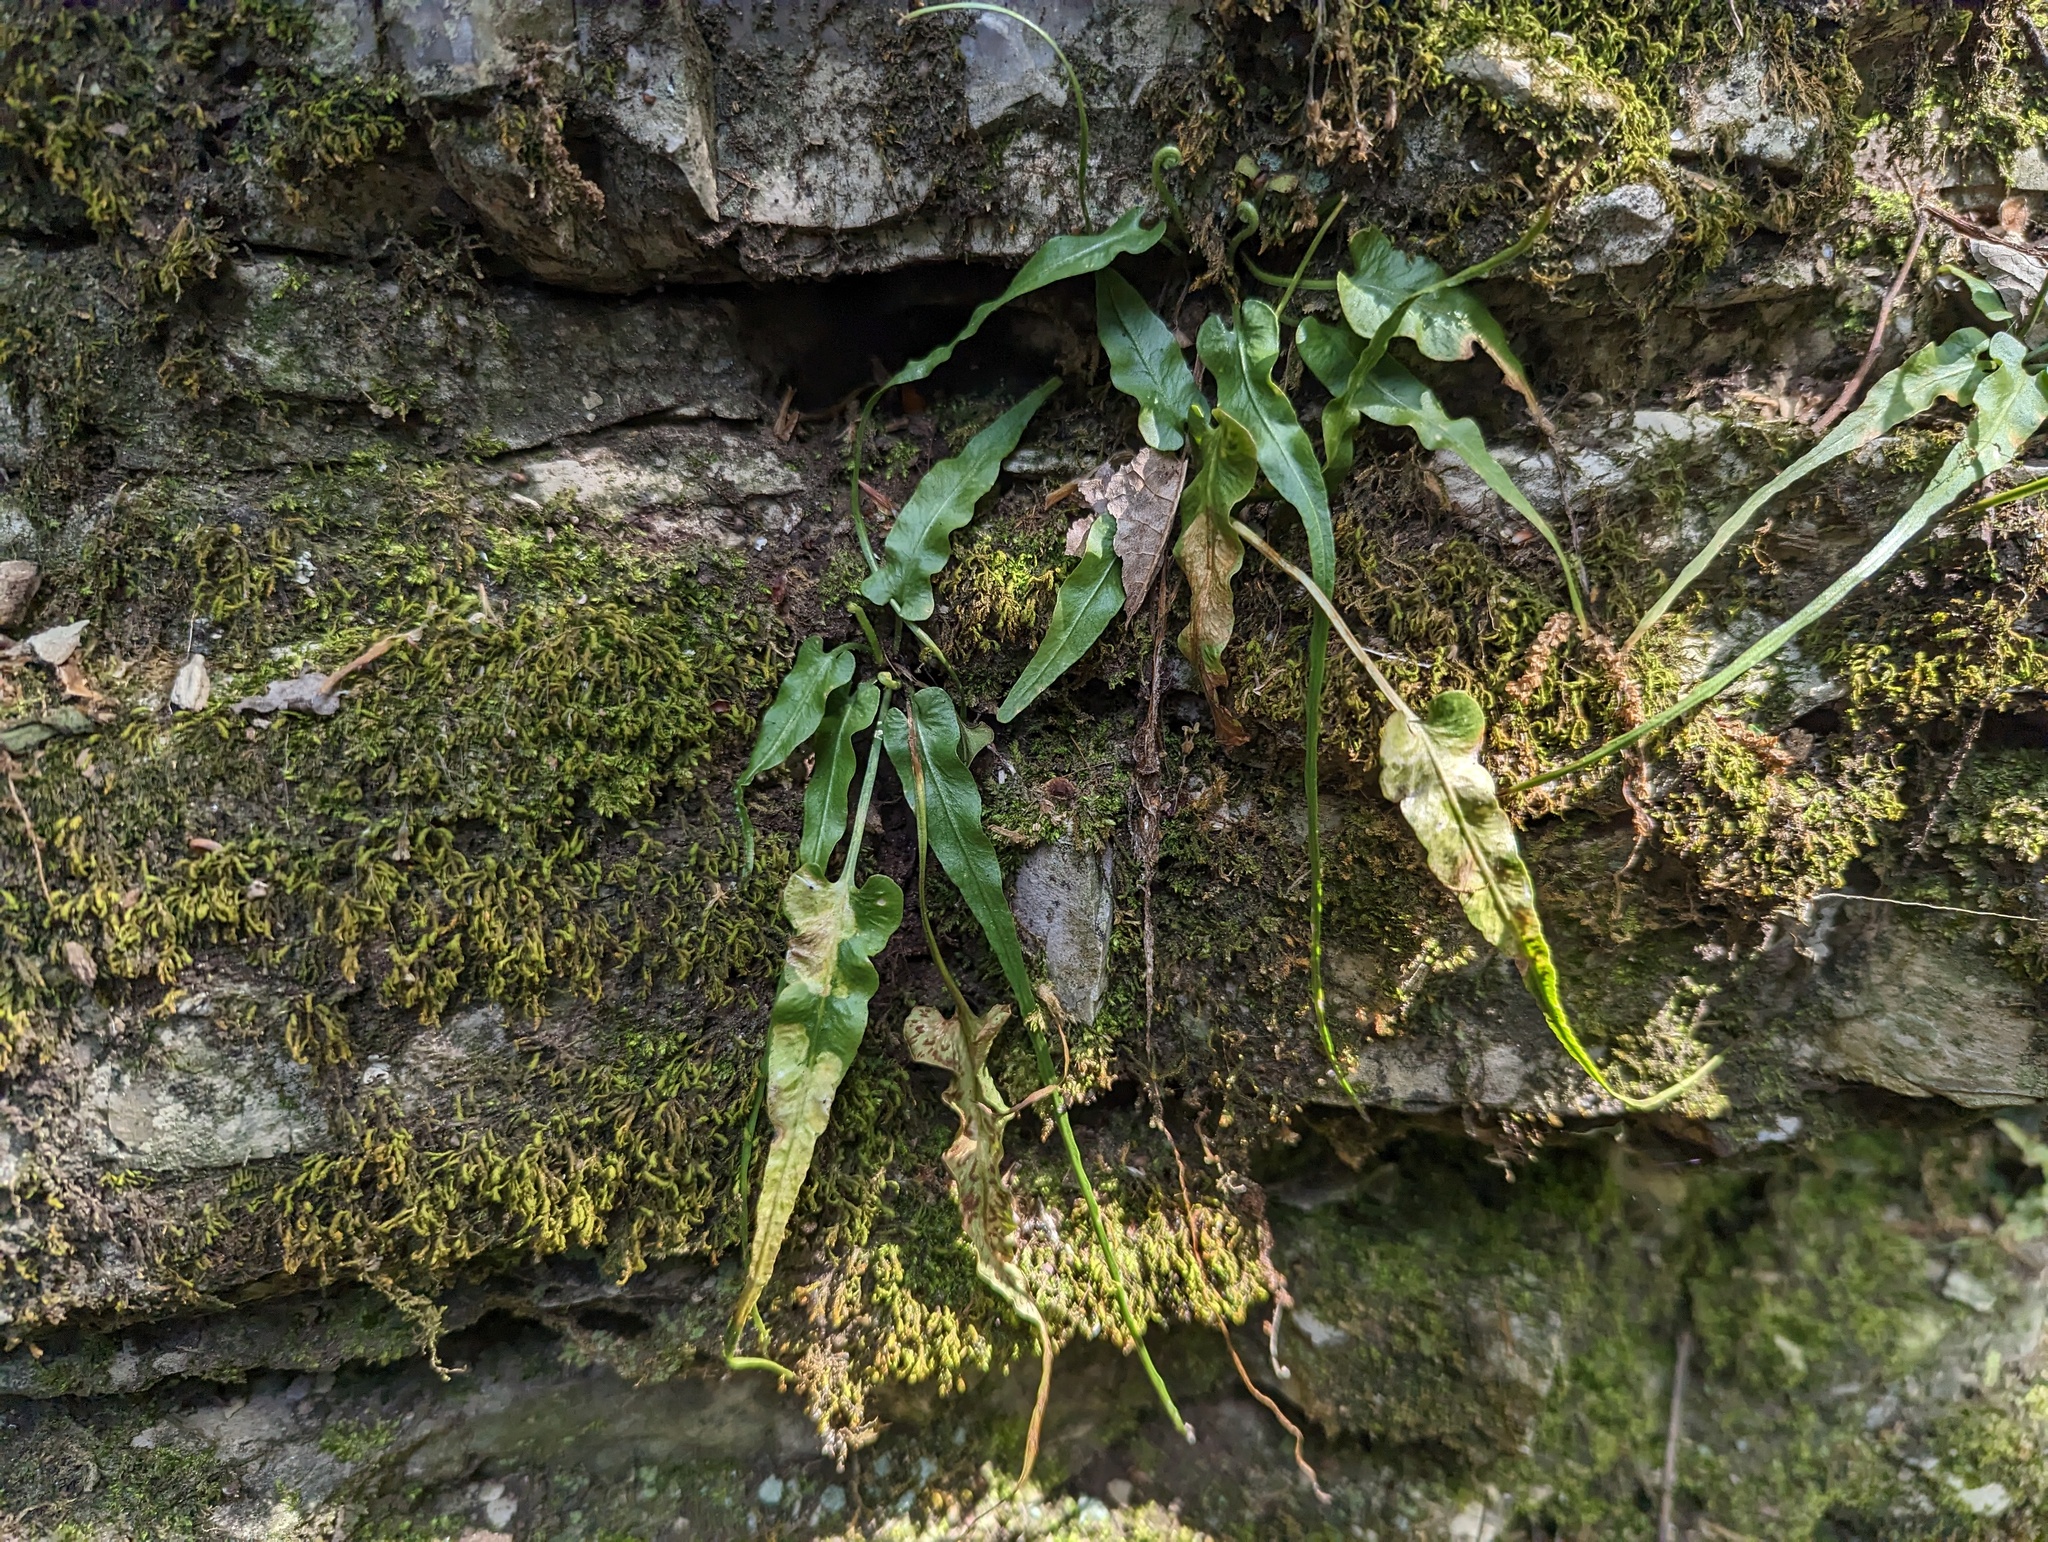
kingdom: Plantae
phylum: Tracheophyta
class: Polypodiopsida
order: Polypodiales
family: Aspleniaceae
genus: Asplenium
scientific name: Asplenium rhizophyllum
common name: Walking fern
